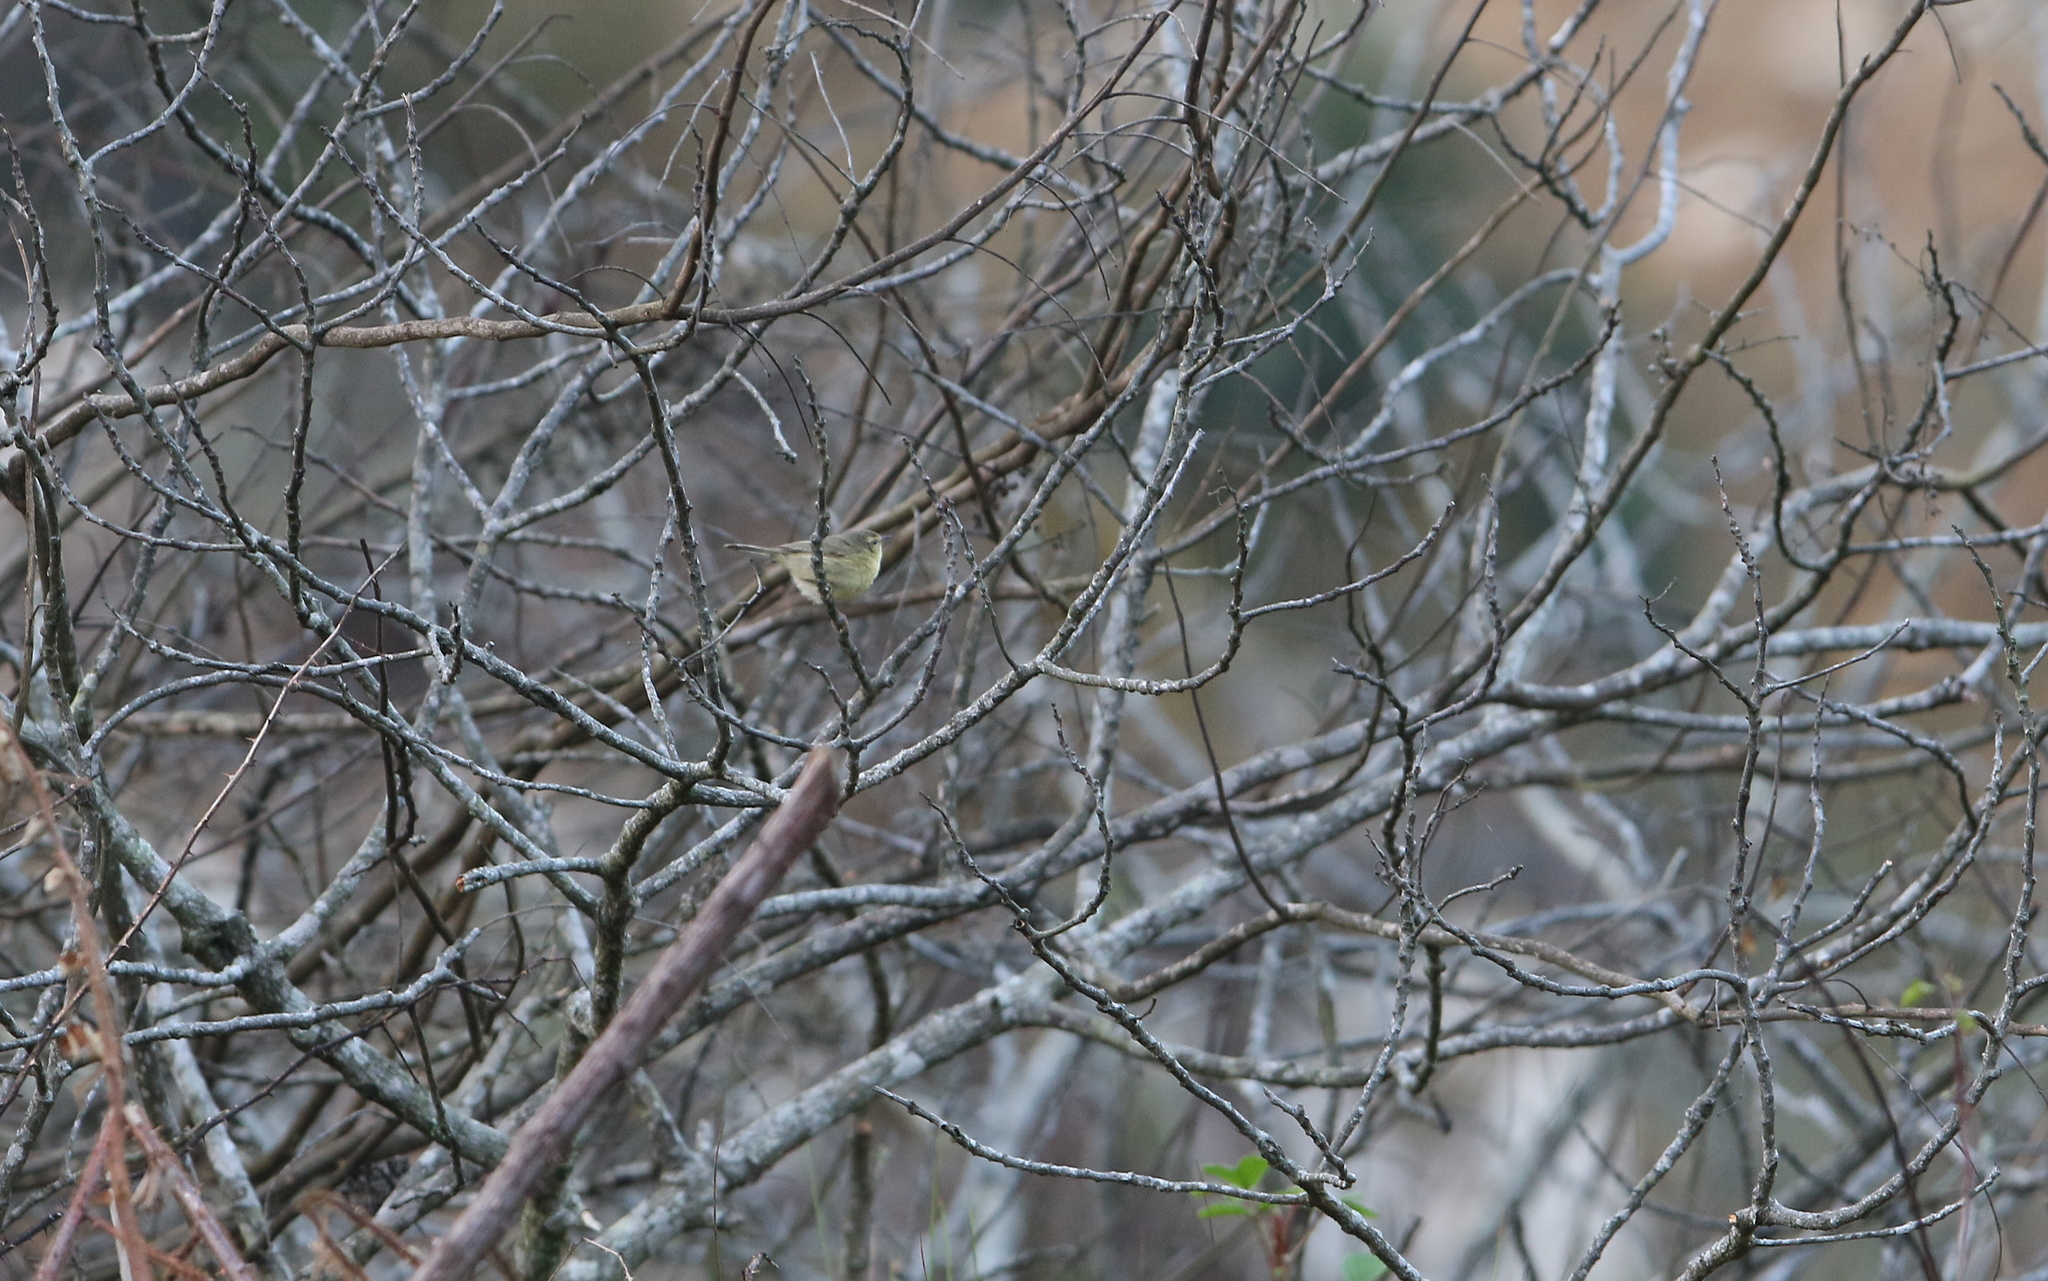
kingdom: Animalia
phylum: Chordata
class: Aves
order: Passeriformes
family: Phylloscopidae
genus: Phylloscopus
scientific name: Phylloscopus subaffinis
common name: Buff-throated warbler
